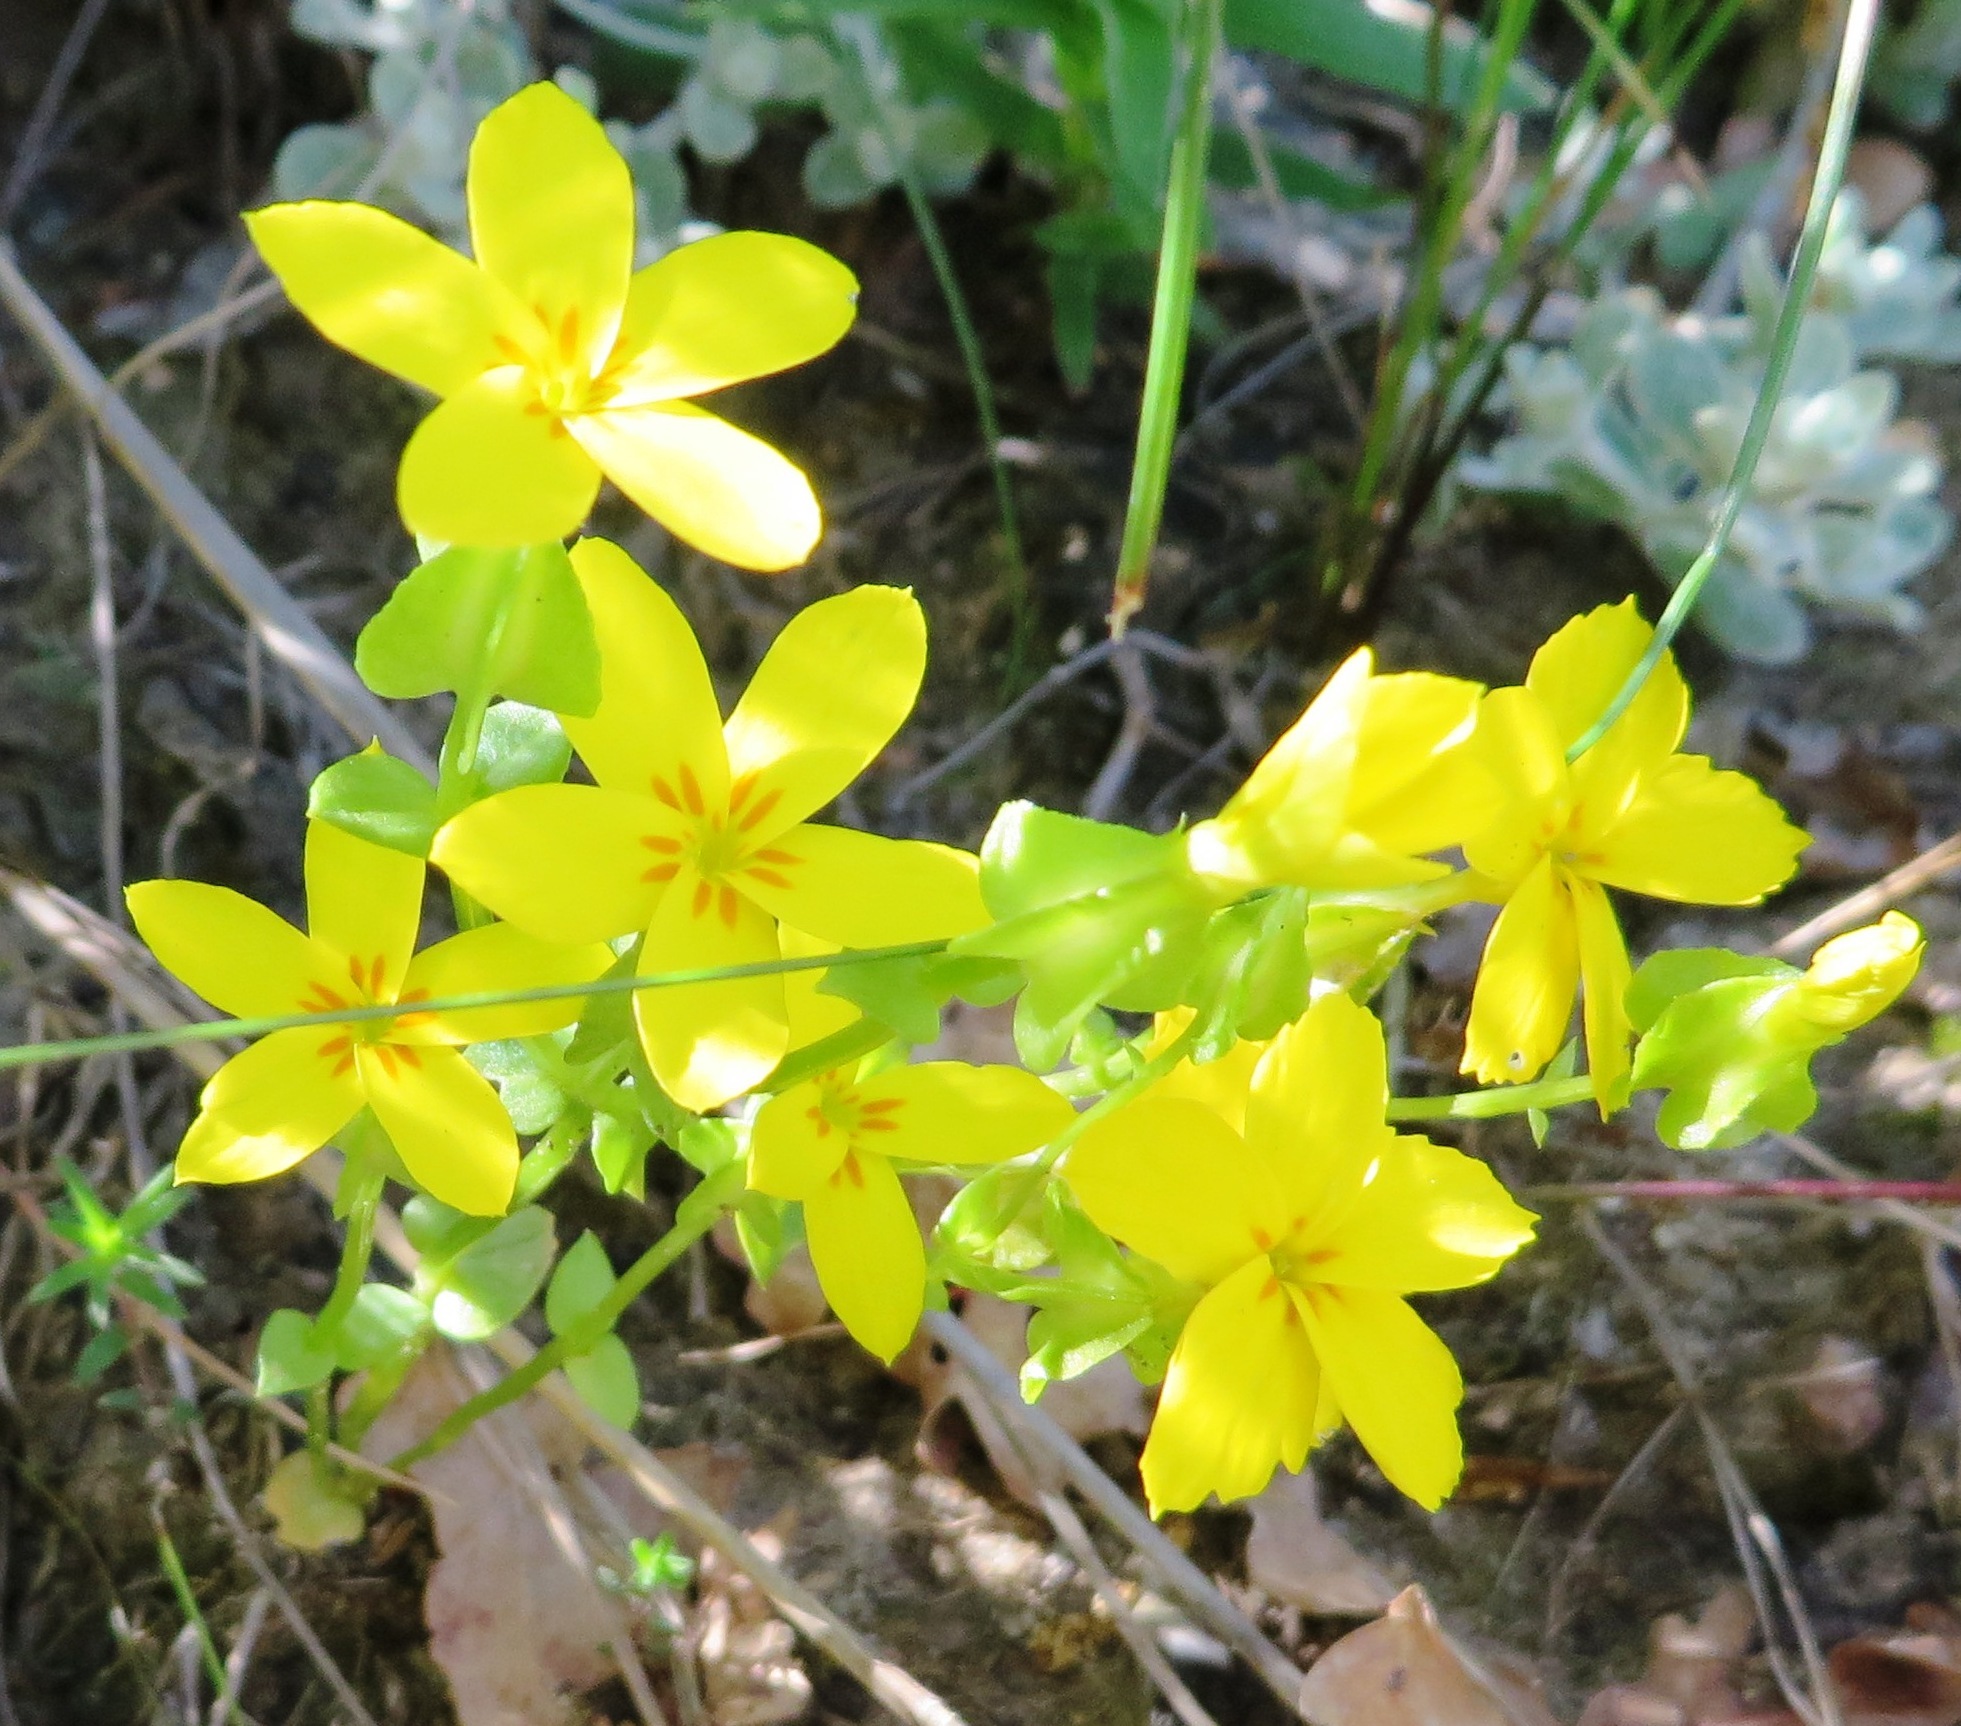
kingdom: Plantae
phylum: Tracheophyta
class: Magnoliopsida
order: Gentianales
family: Gentianaceae
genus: Sebaea
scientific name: Sebaea exacoides
